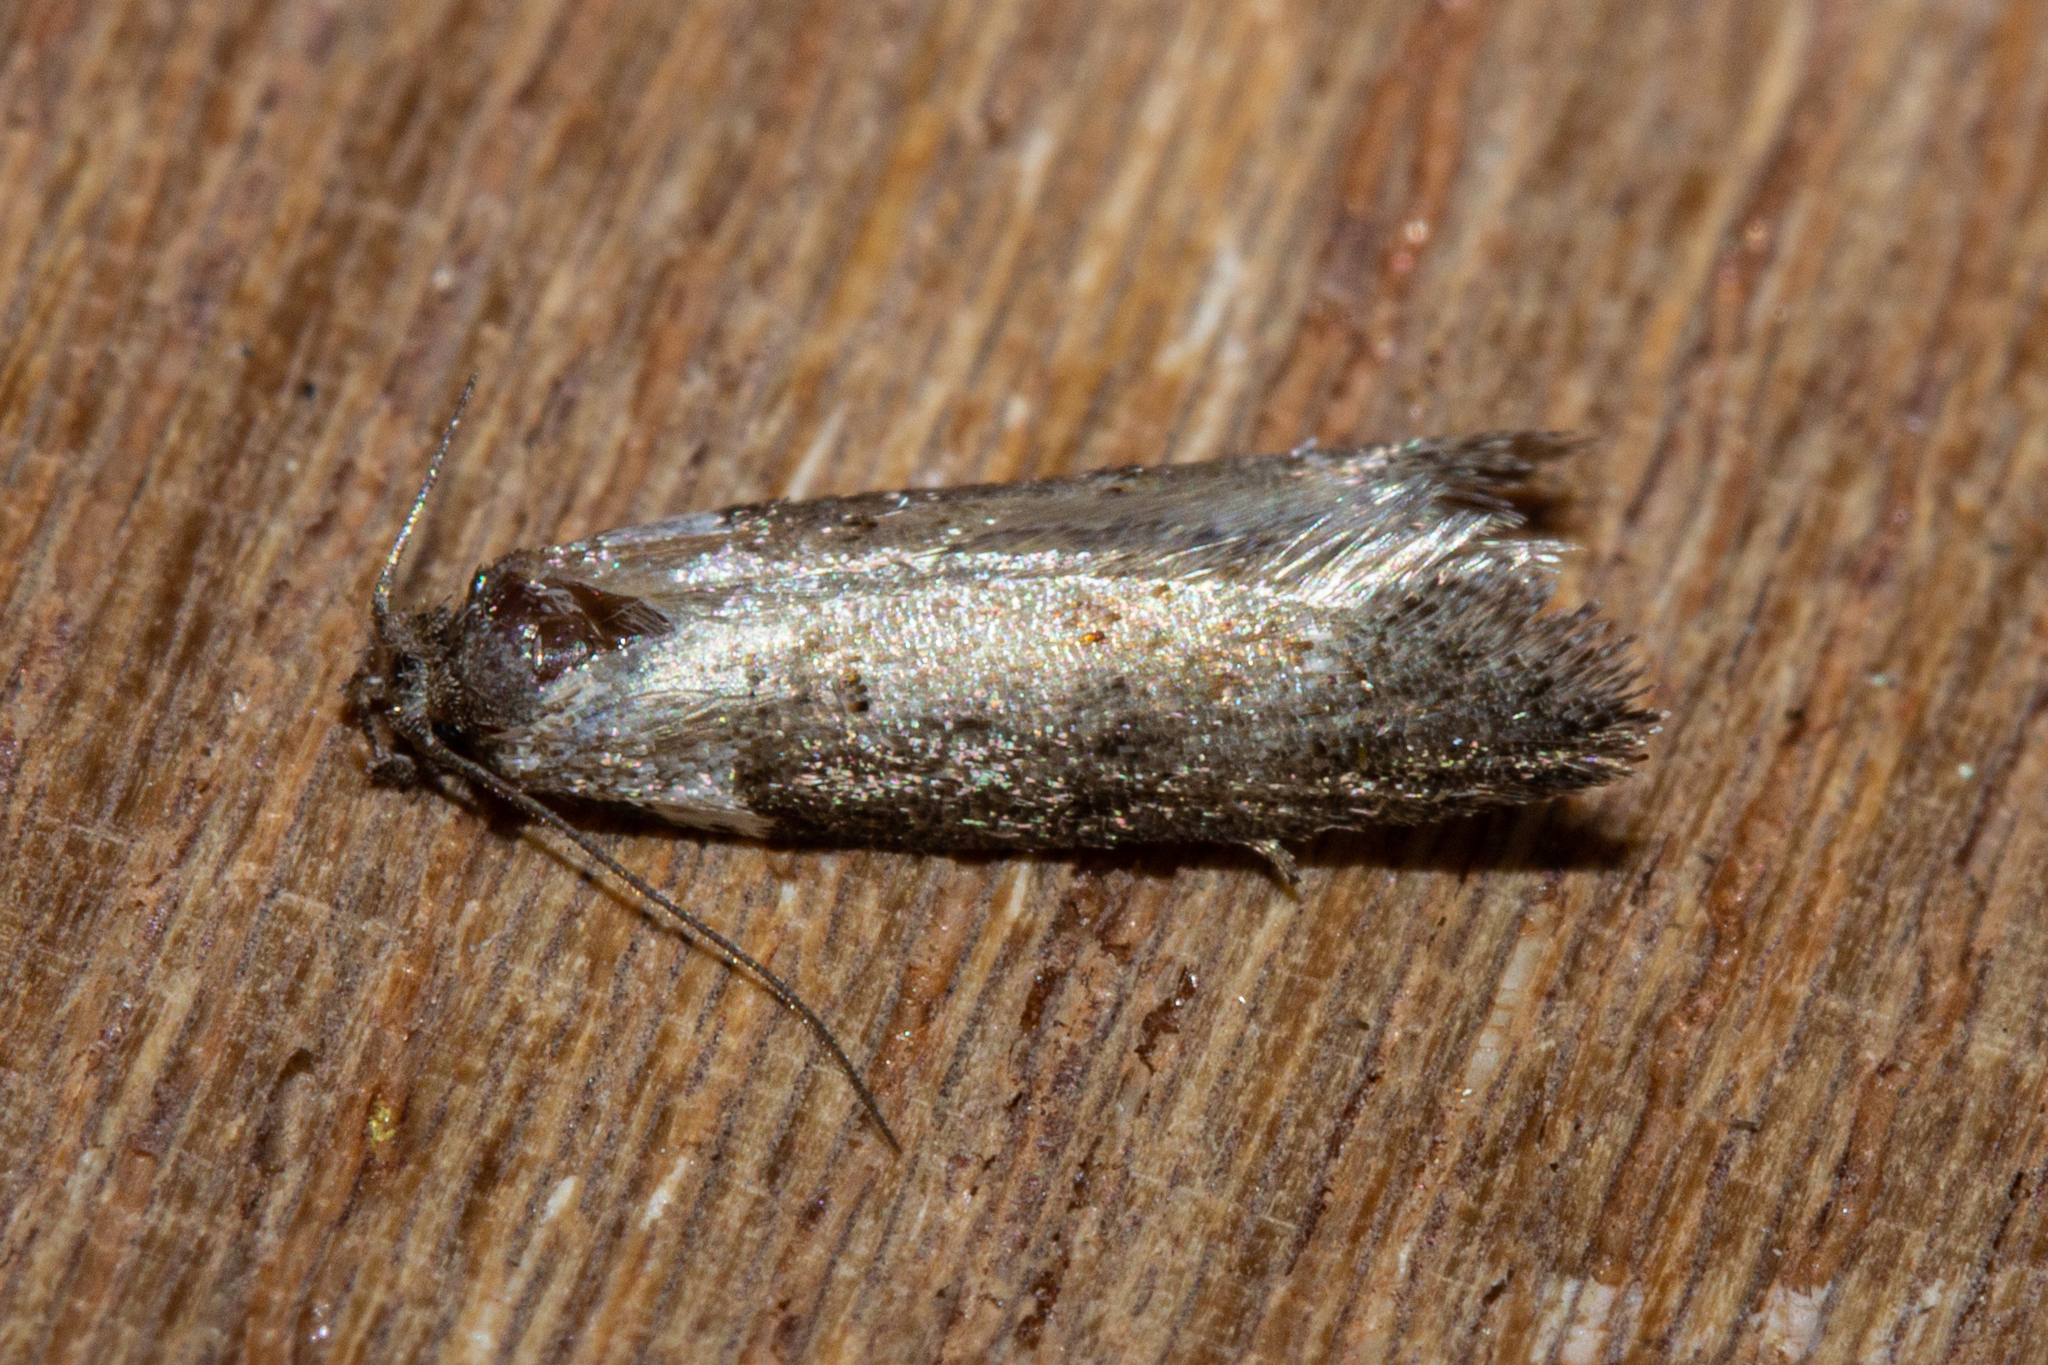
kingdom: Animalia
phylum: Arthropoda
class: Insecta
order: Lepidoptera
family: Oecophoridae
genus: Trachypepla
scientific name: Trachypepla conspicuella
